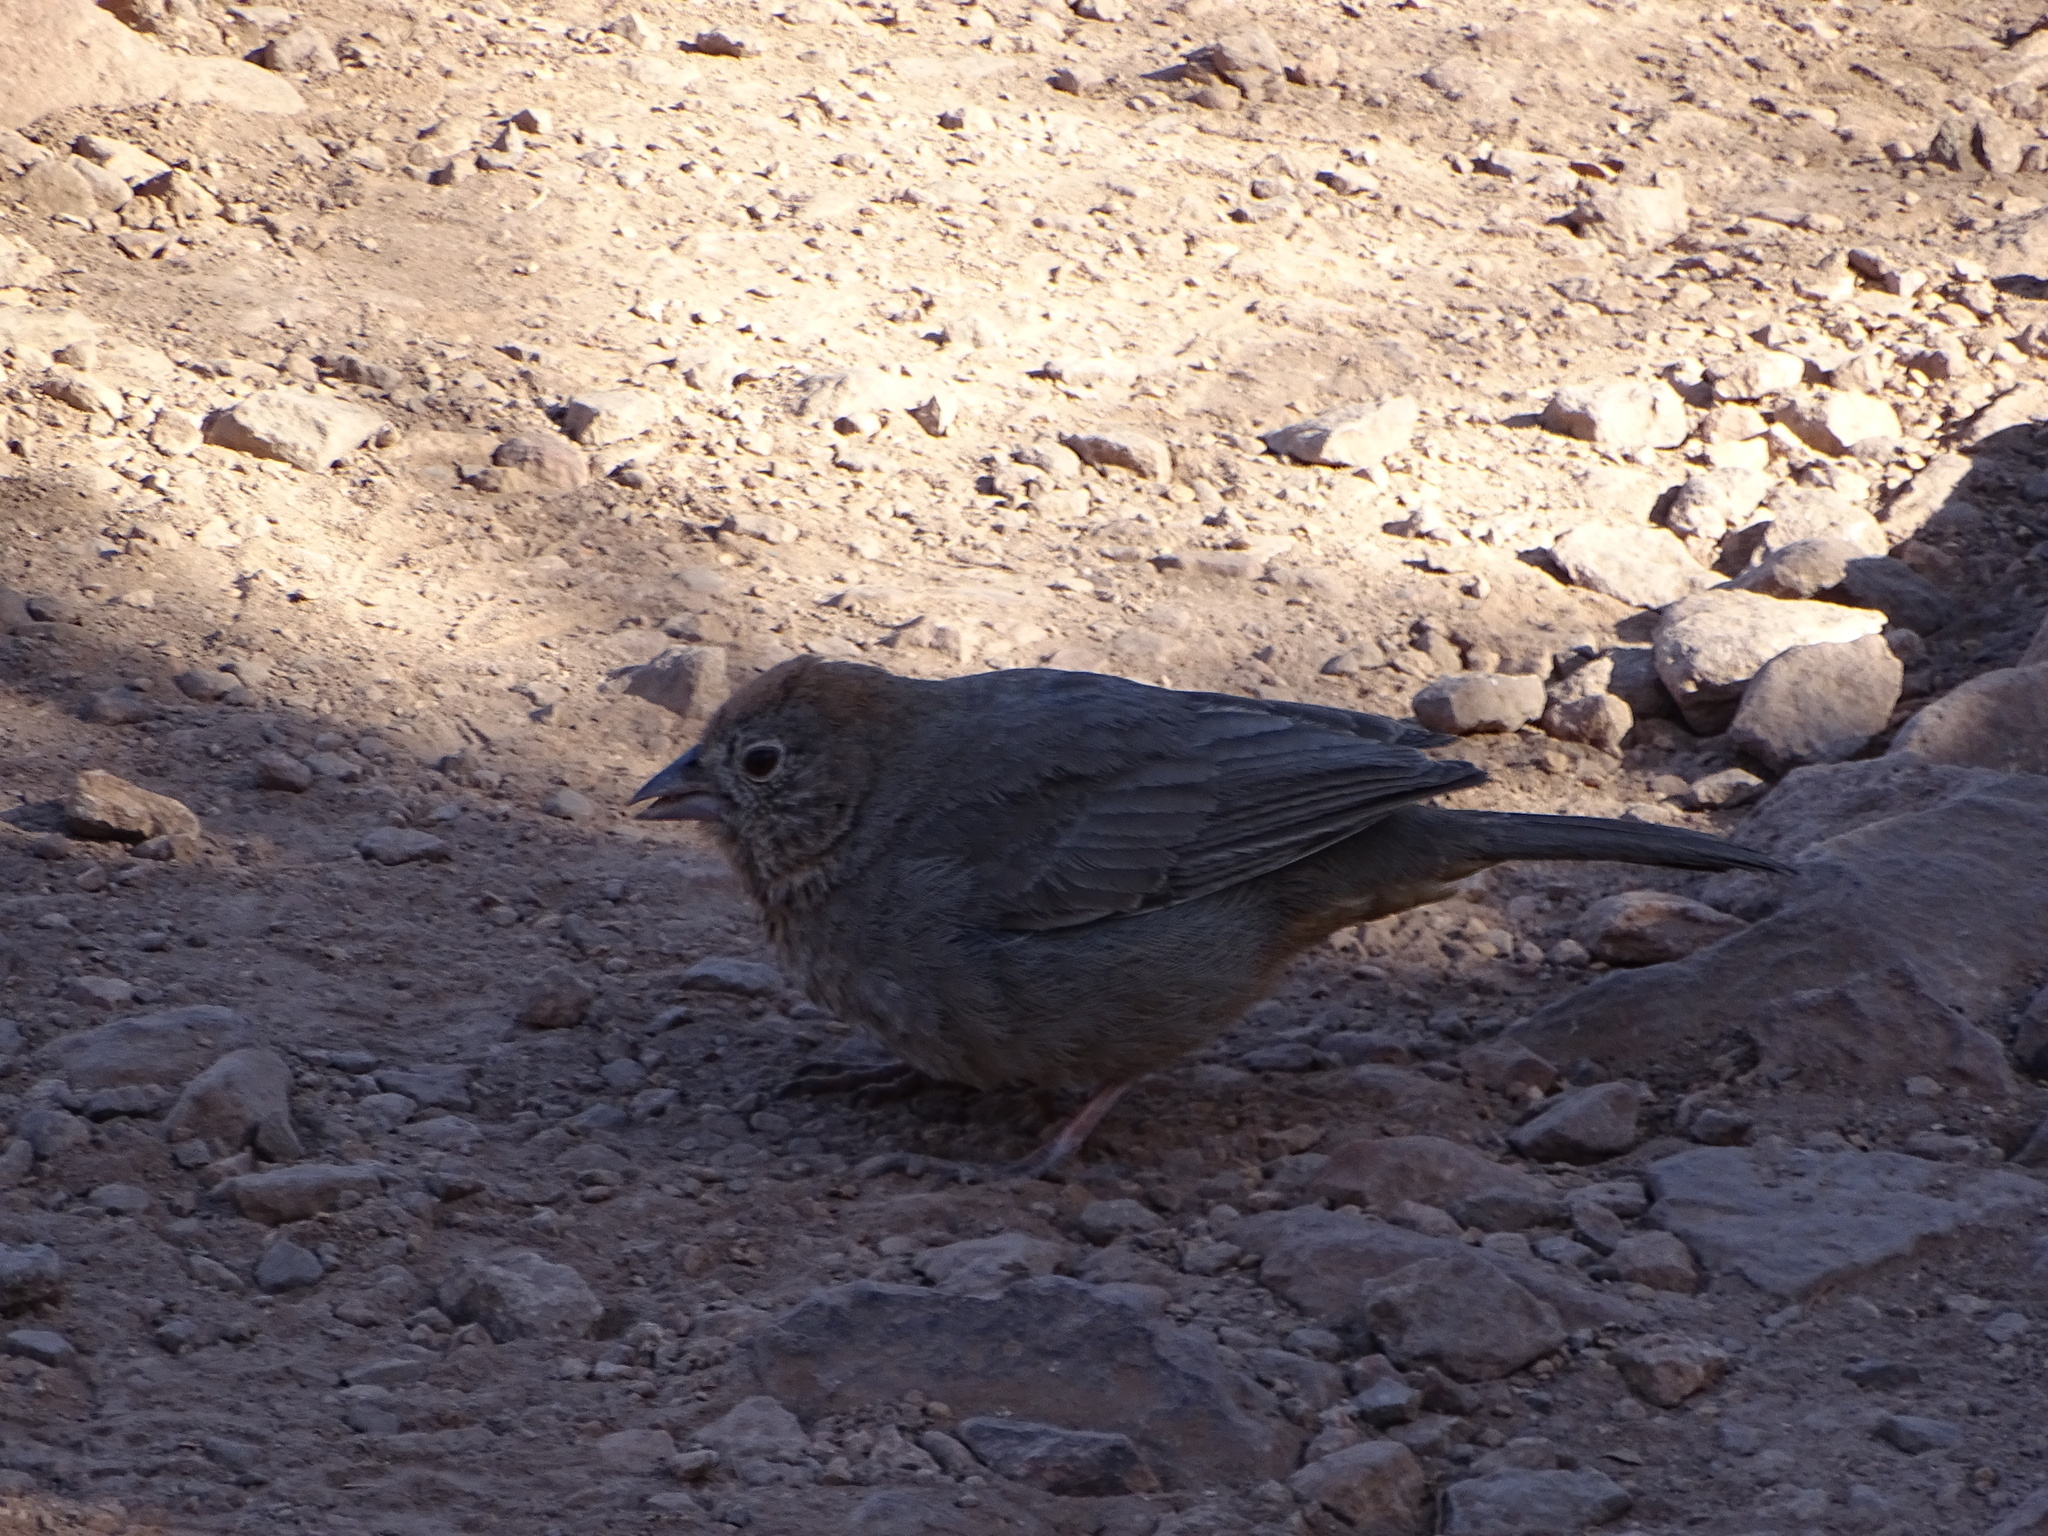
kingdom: Animalia
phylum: Chordata
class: Aves
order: Passeriformes
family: Passerellidae
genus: Melozone
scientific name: Melozone fusca
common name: Canyon towhee
